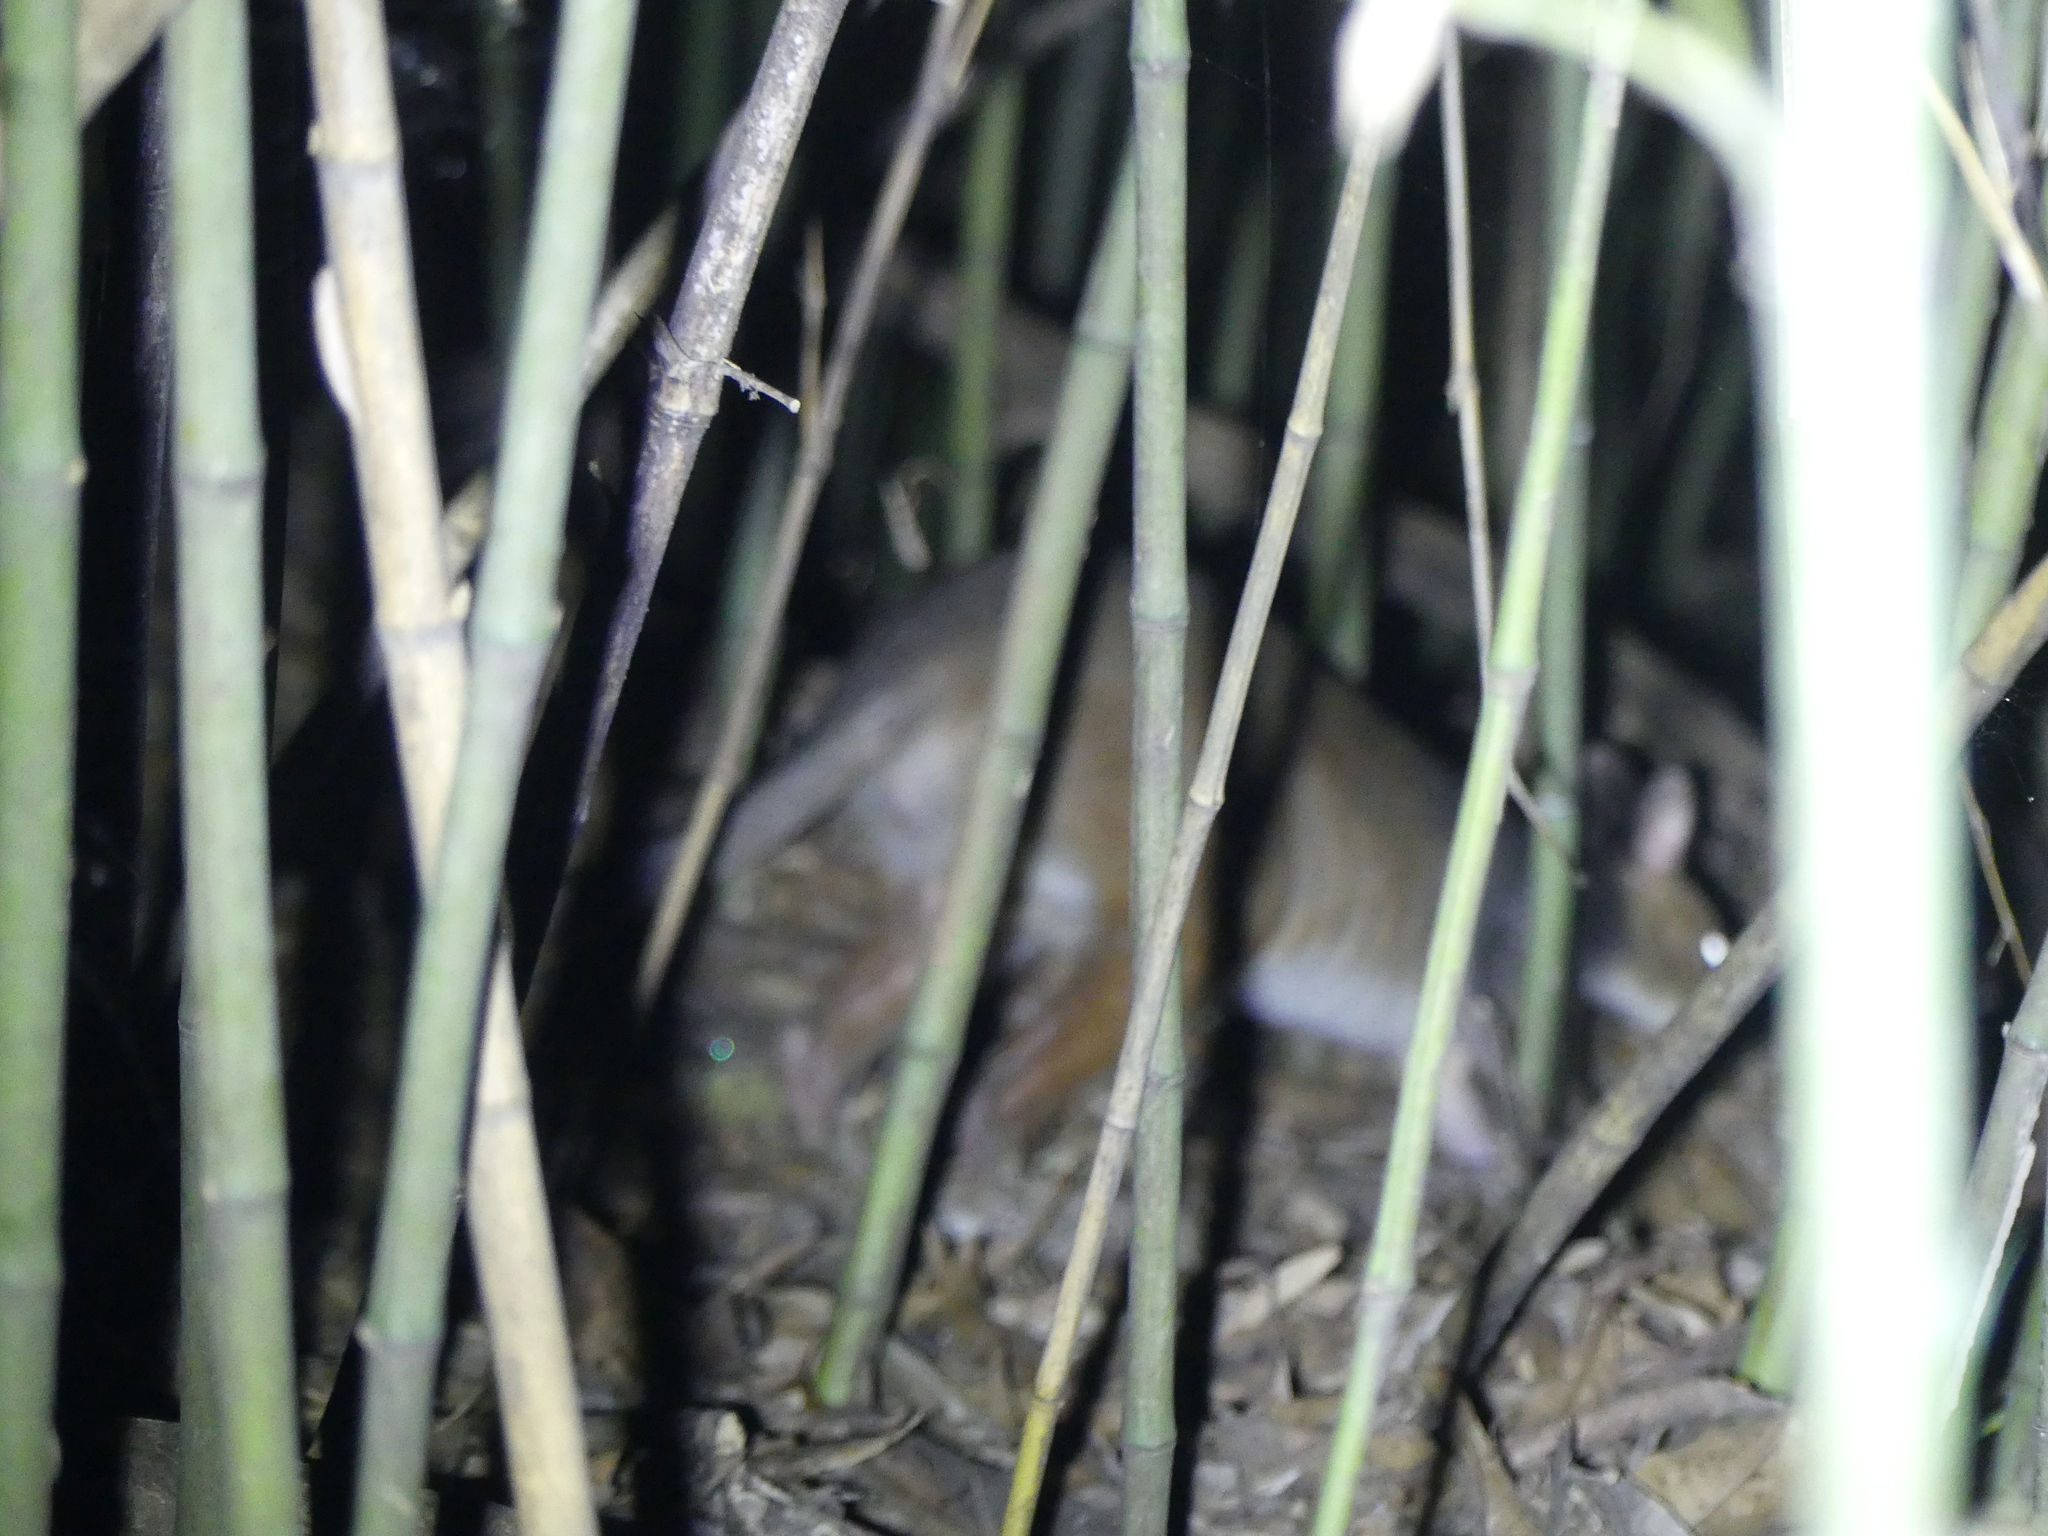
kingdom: Animalia
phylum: Chordata
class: Mammalia
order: Diprotodontia
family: Macropodidae
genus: Thylogale
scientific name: Thylogale stigmatica
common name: Red-legged pademelon
